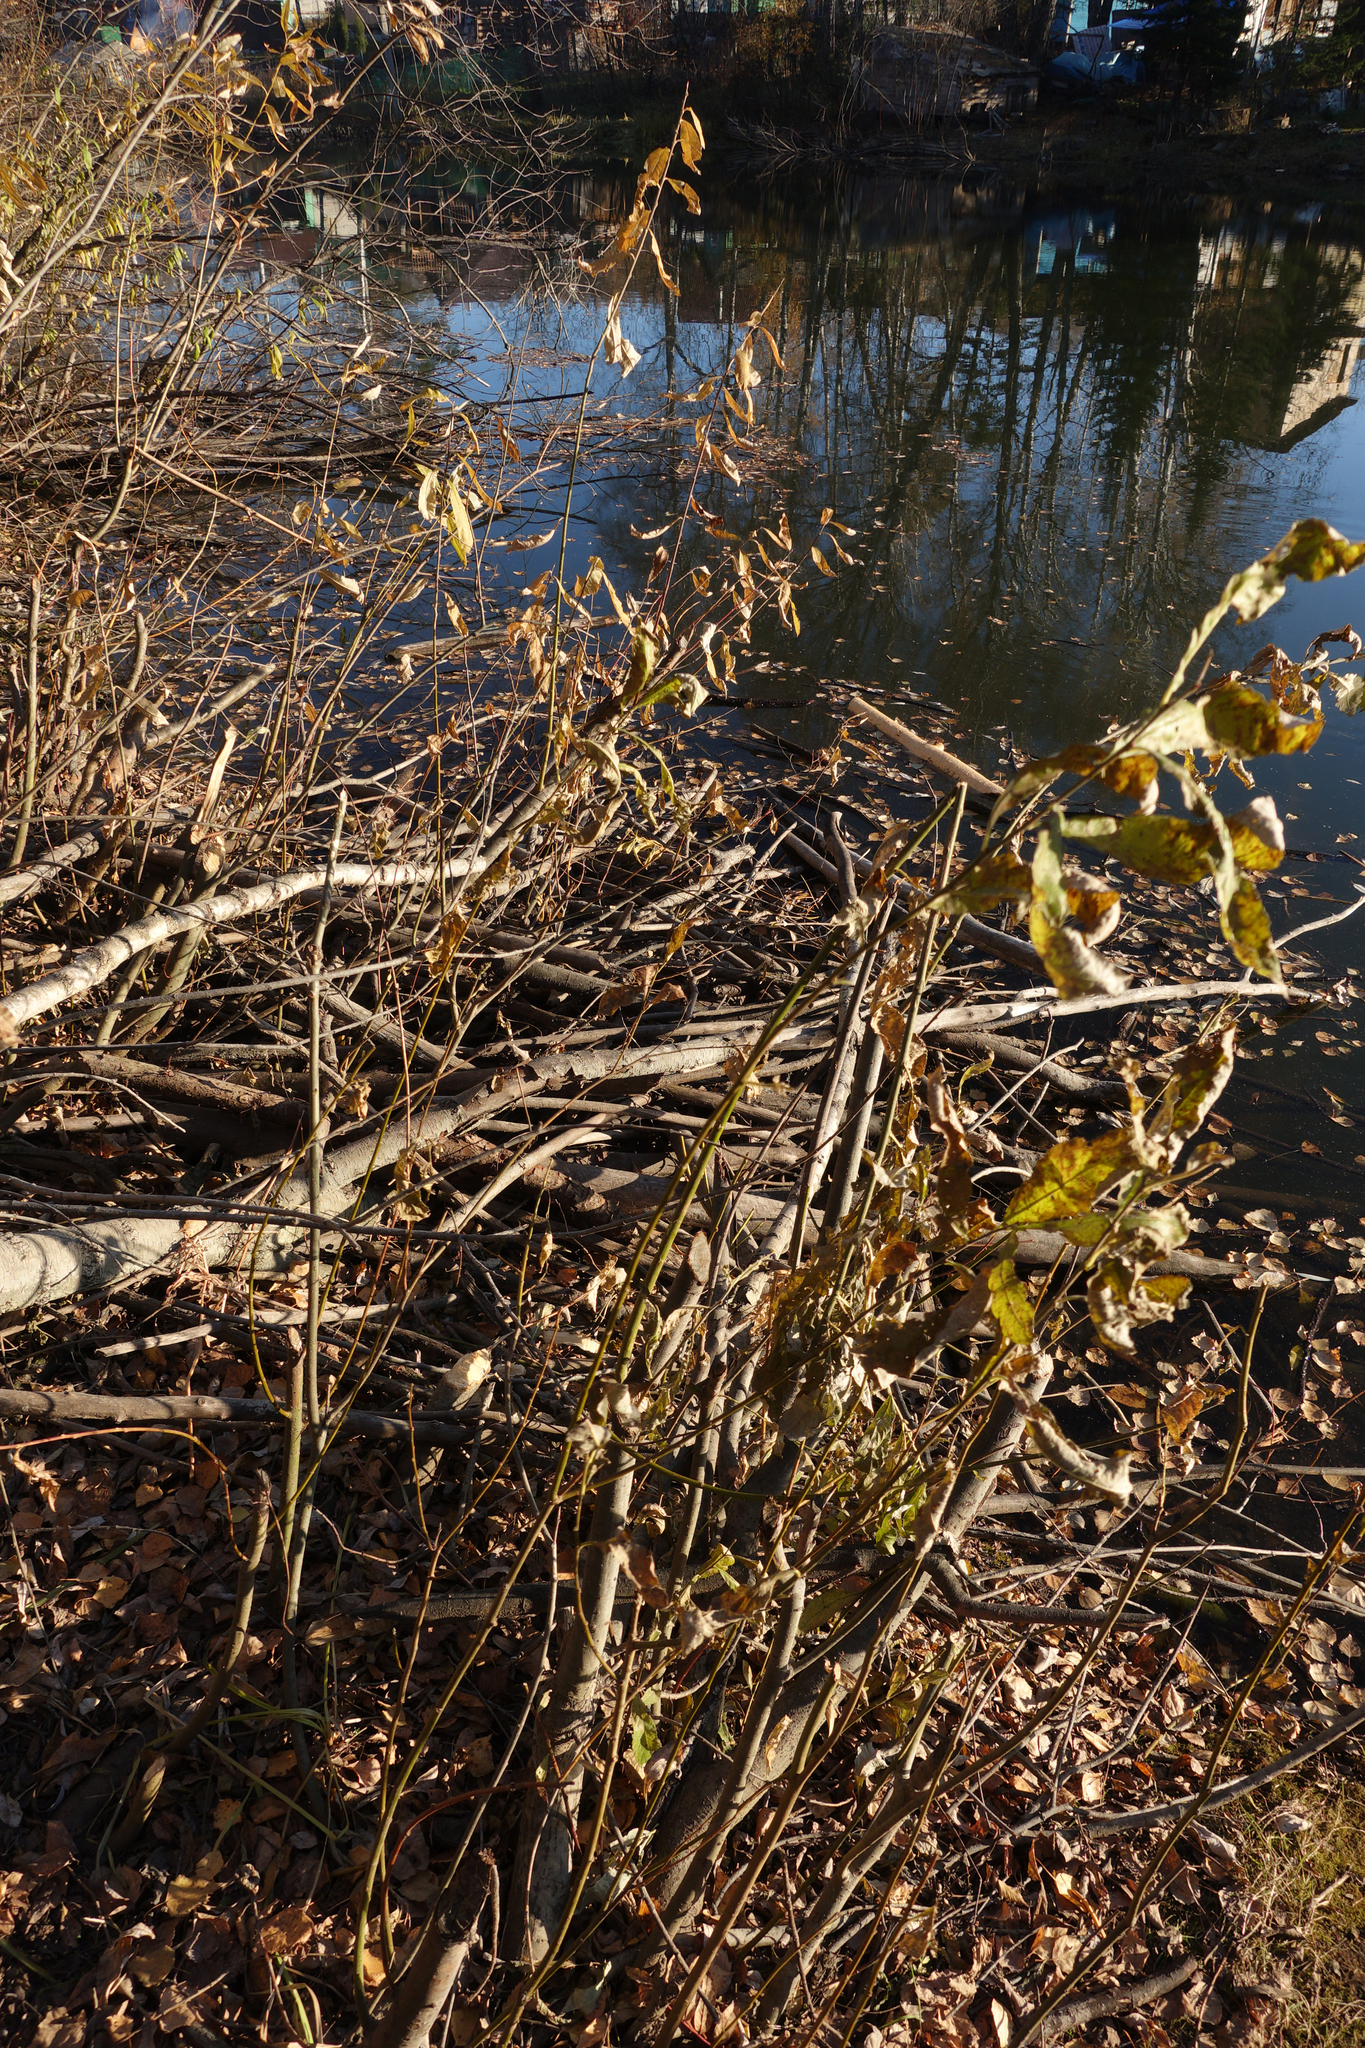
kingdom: Animalia
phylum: Chordata
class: Mammalia
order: Rodentia
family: Castoridae
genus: Castor
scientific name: Castor fiber
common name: Eurasian beaver
